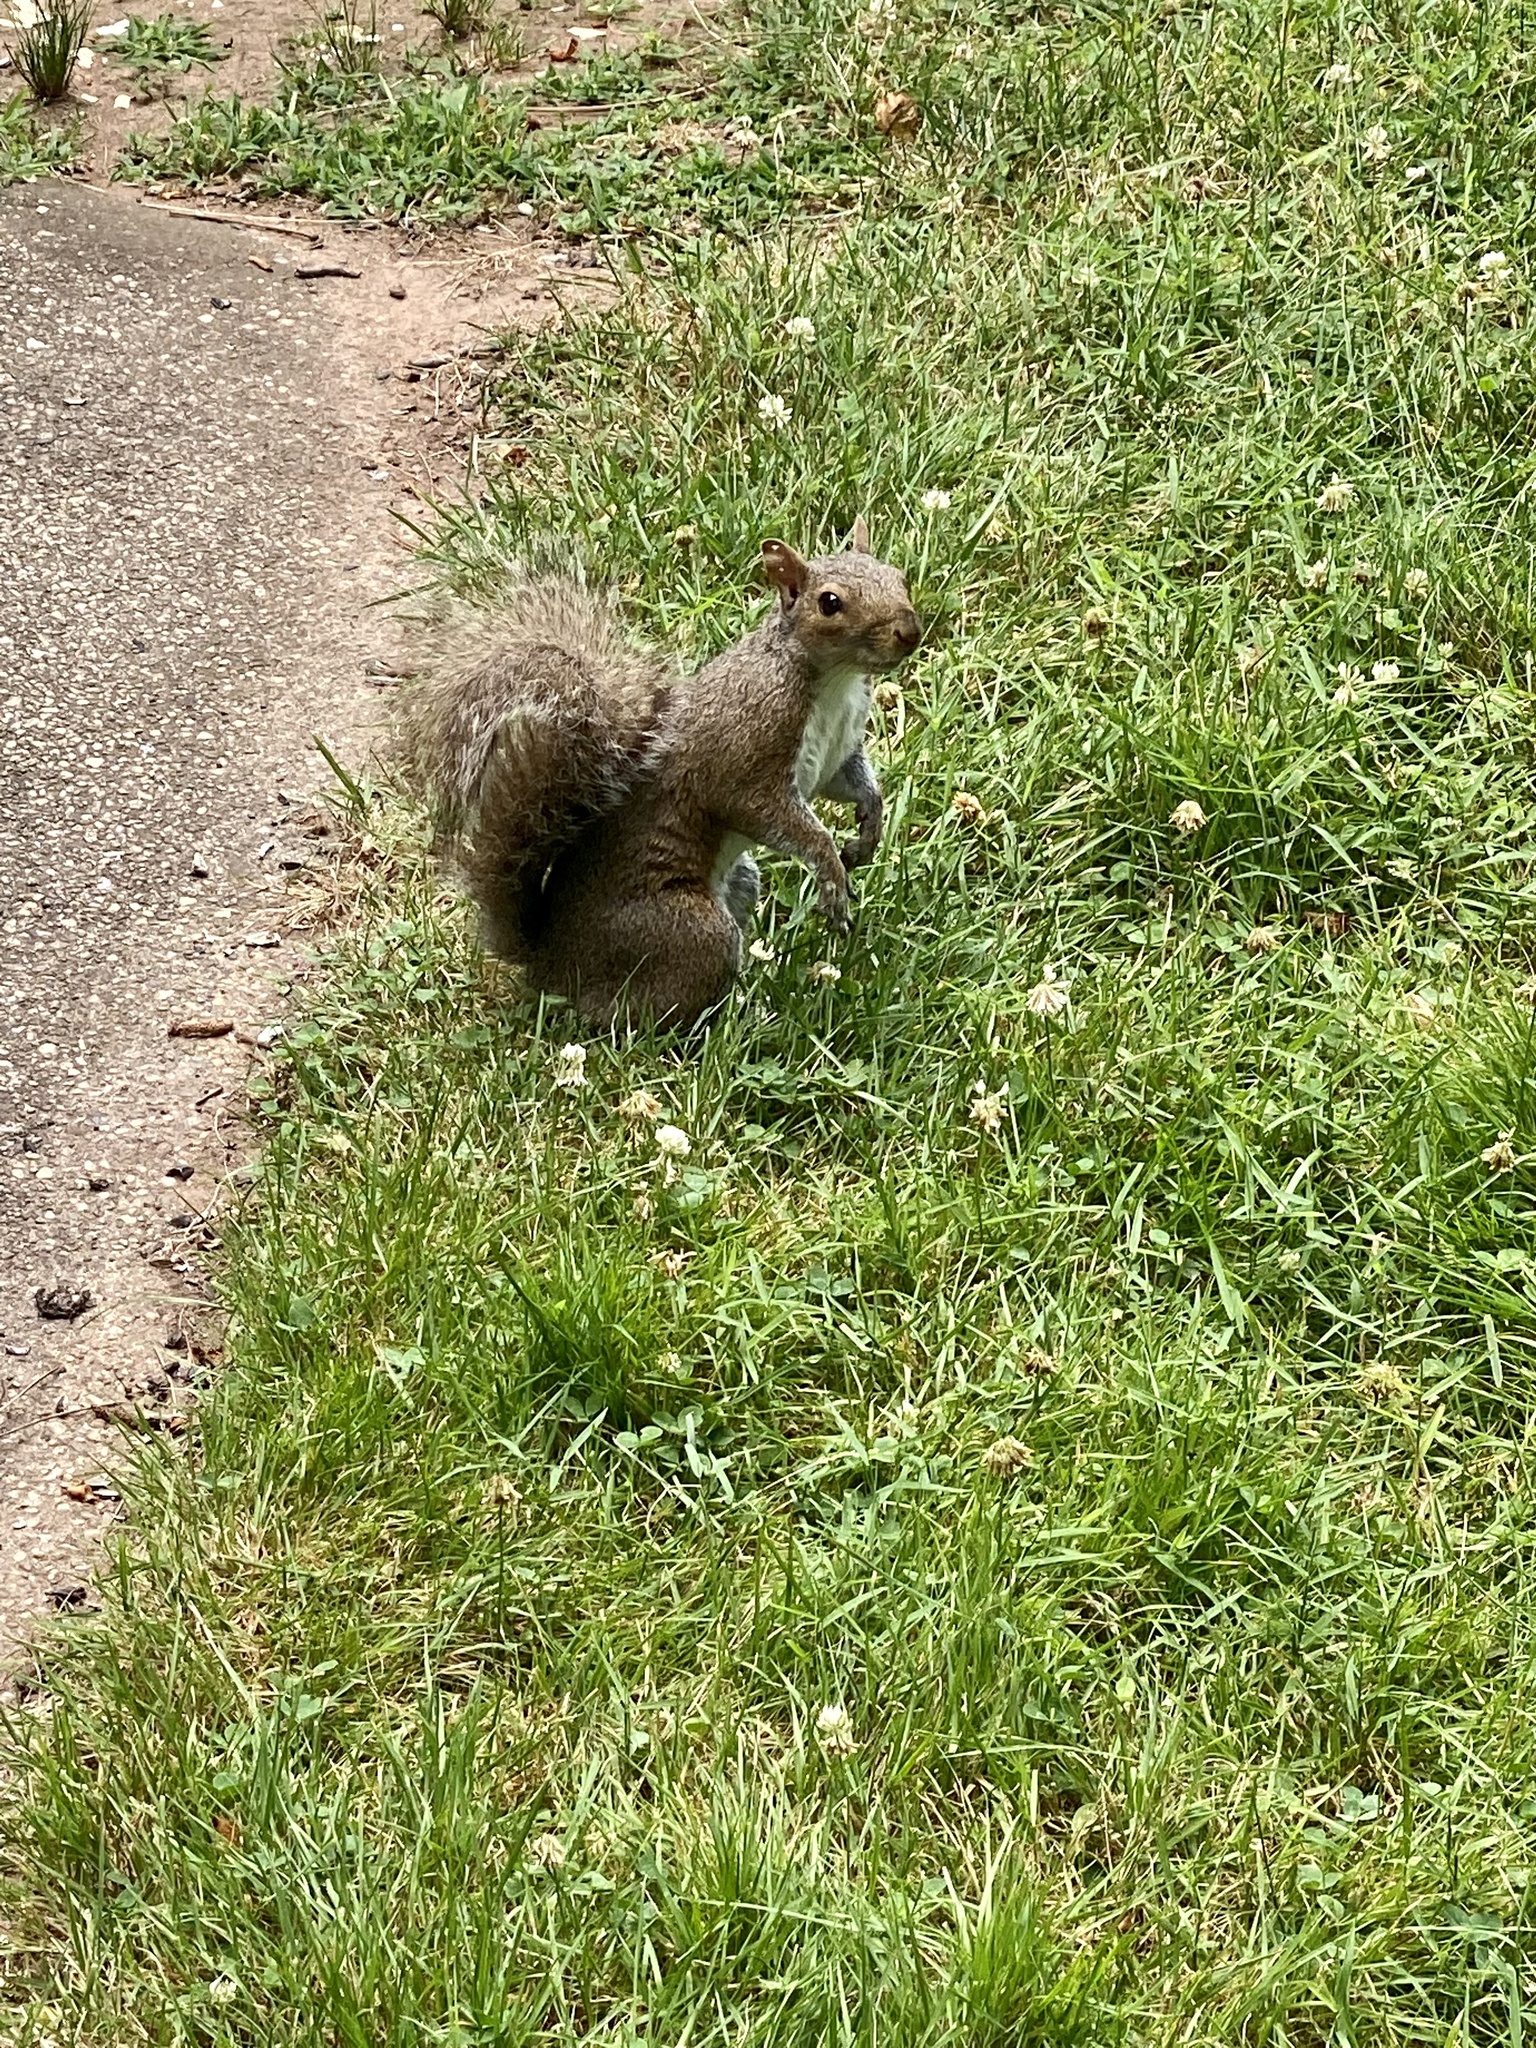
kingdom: Animalia
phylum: Chordata
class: Mammalia
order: Rodentia
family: Sciuridae
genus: Sciurus
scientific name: Sciurus carolinensis
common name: Eastern gray squirrel
